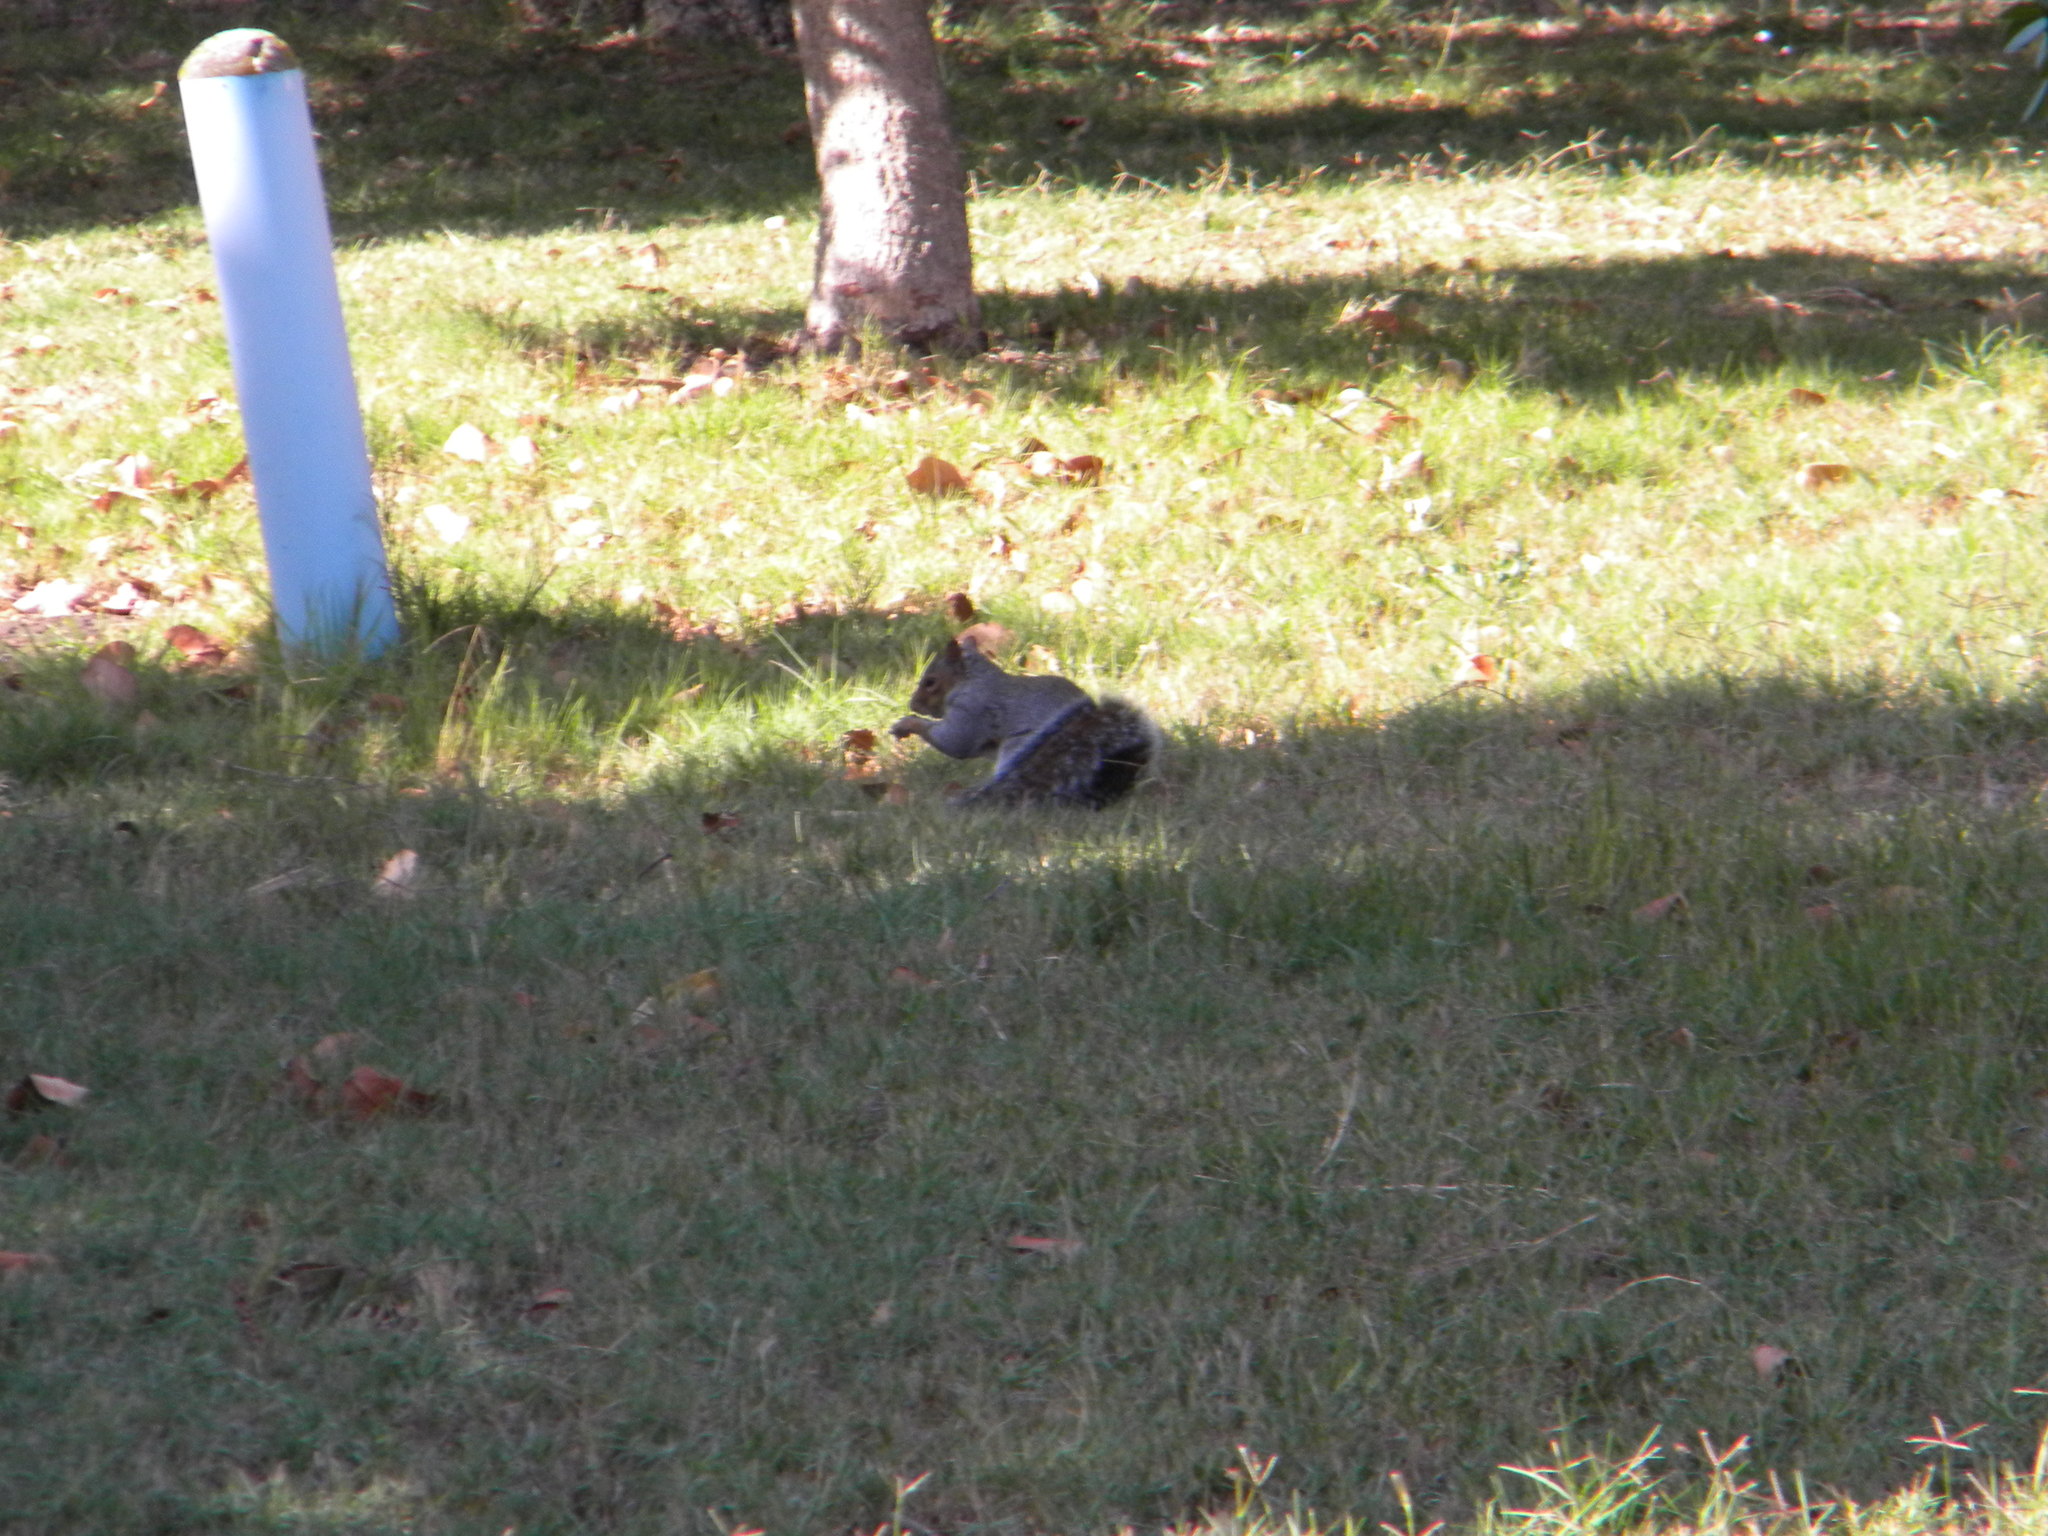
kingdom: Animalia
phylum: Chordata
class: Mammalia
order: Rodentia
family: Sciuridae
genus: Sciurus
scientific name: Sciurus carolinensis
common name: Eastern gray squirrel
